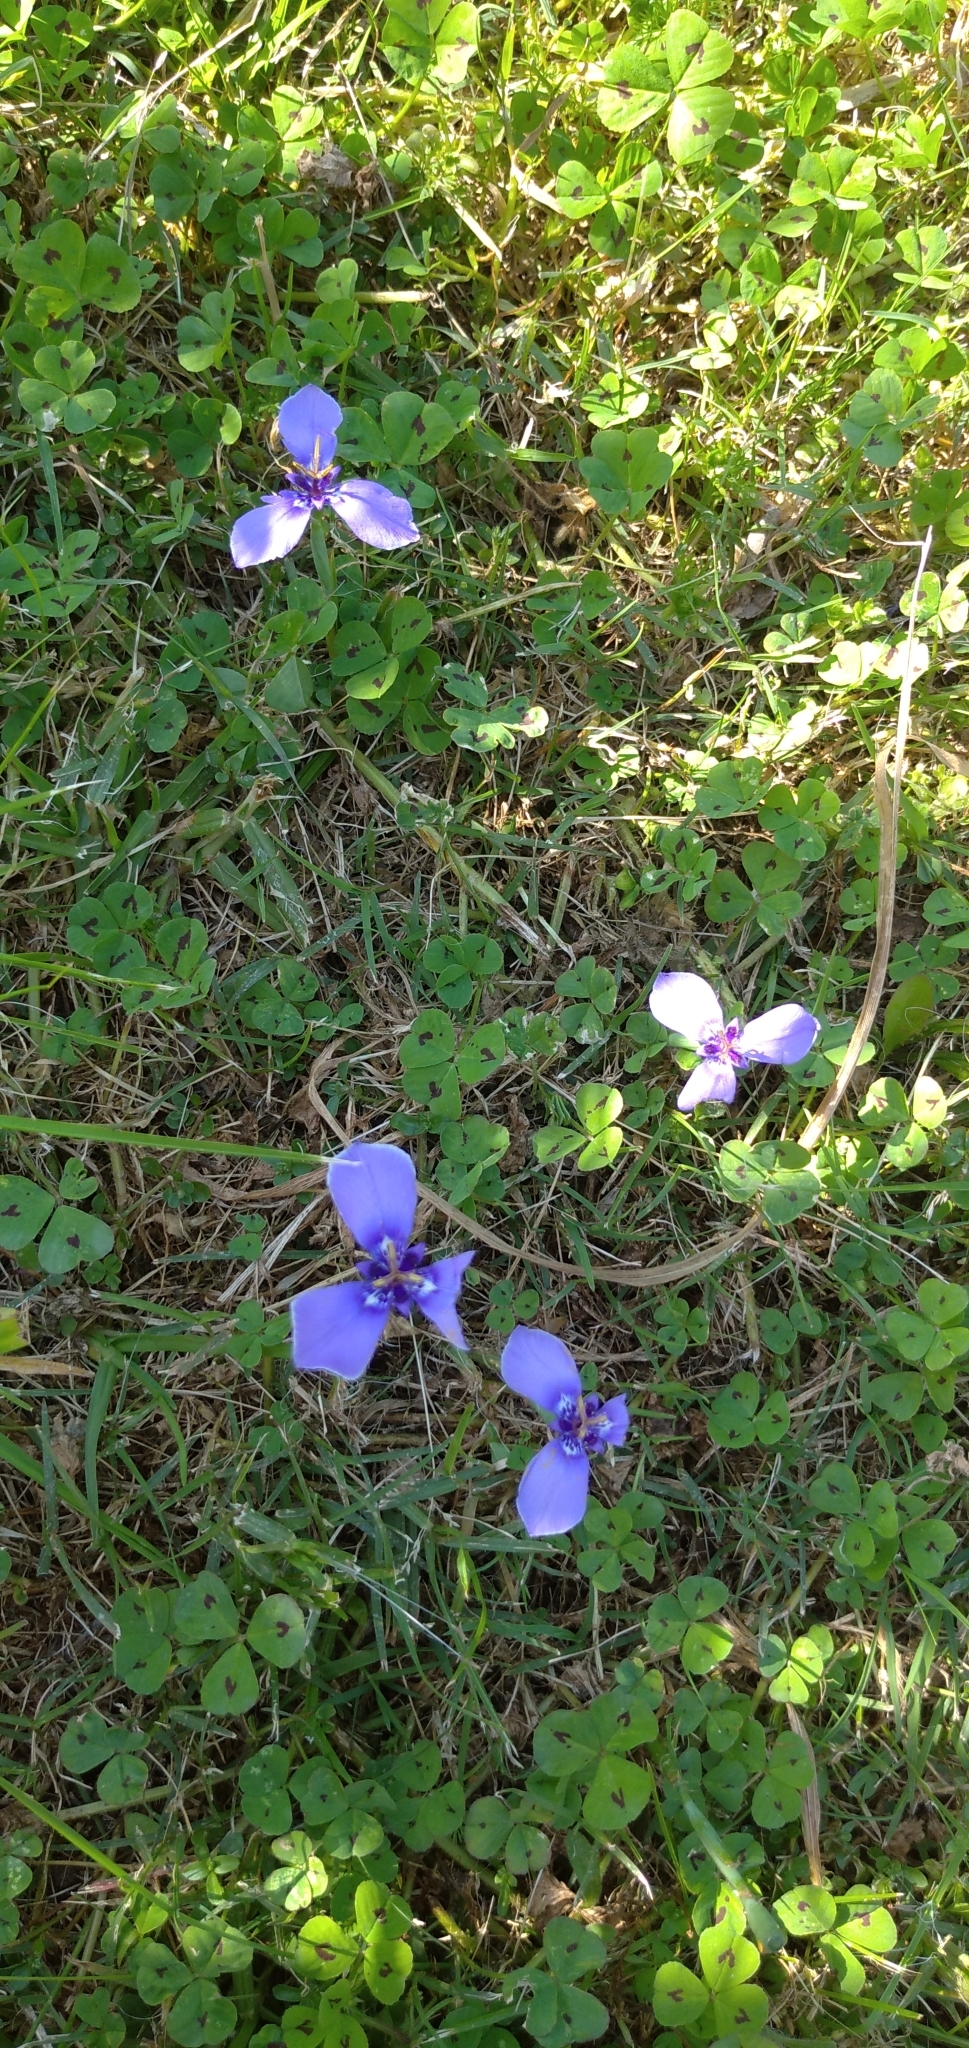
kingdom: Plantae
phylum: Tracheophyta
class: Liliopsida
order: Asparagales
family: Iridaceae
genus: Herbertia
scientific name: Herbertia lahue
